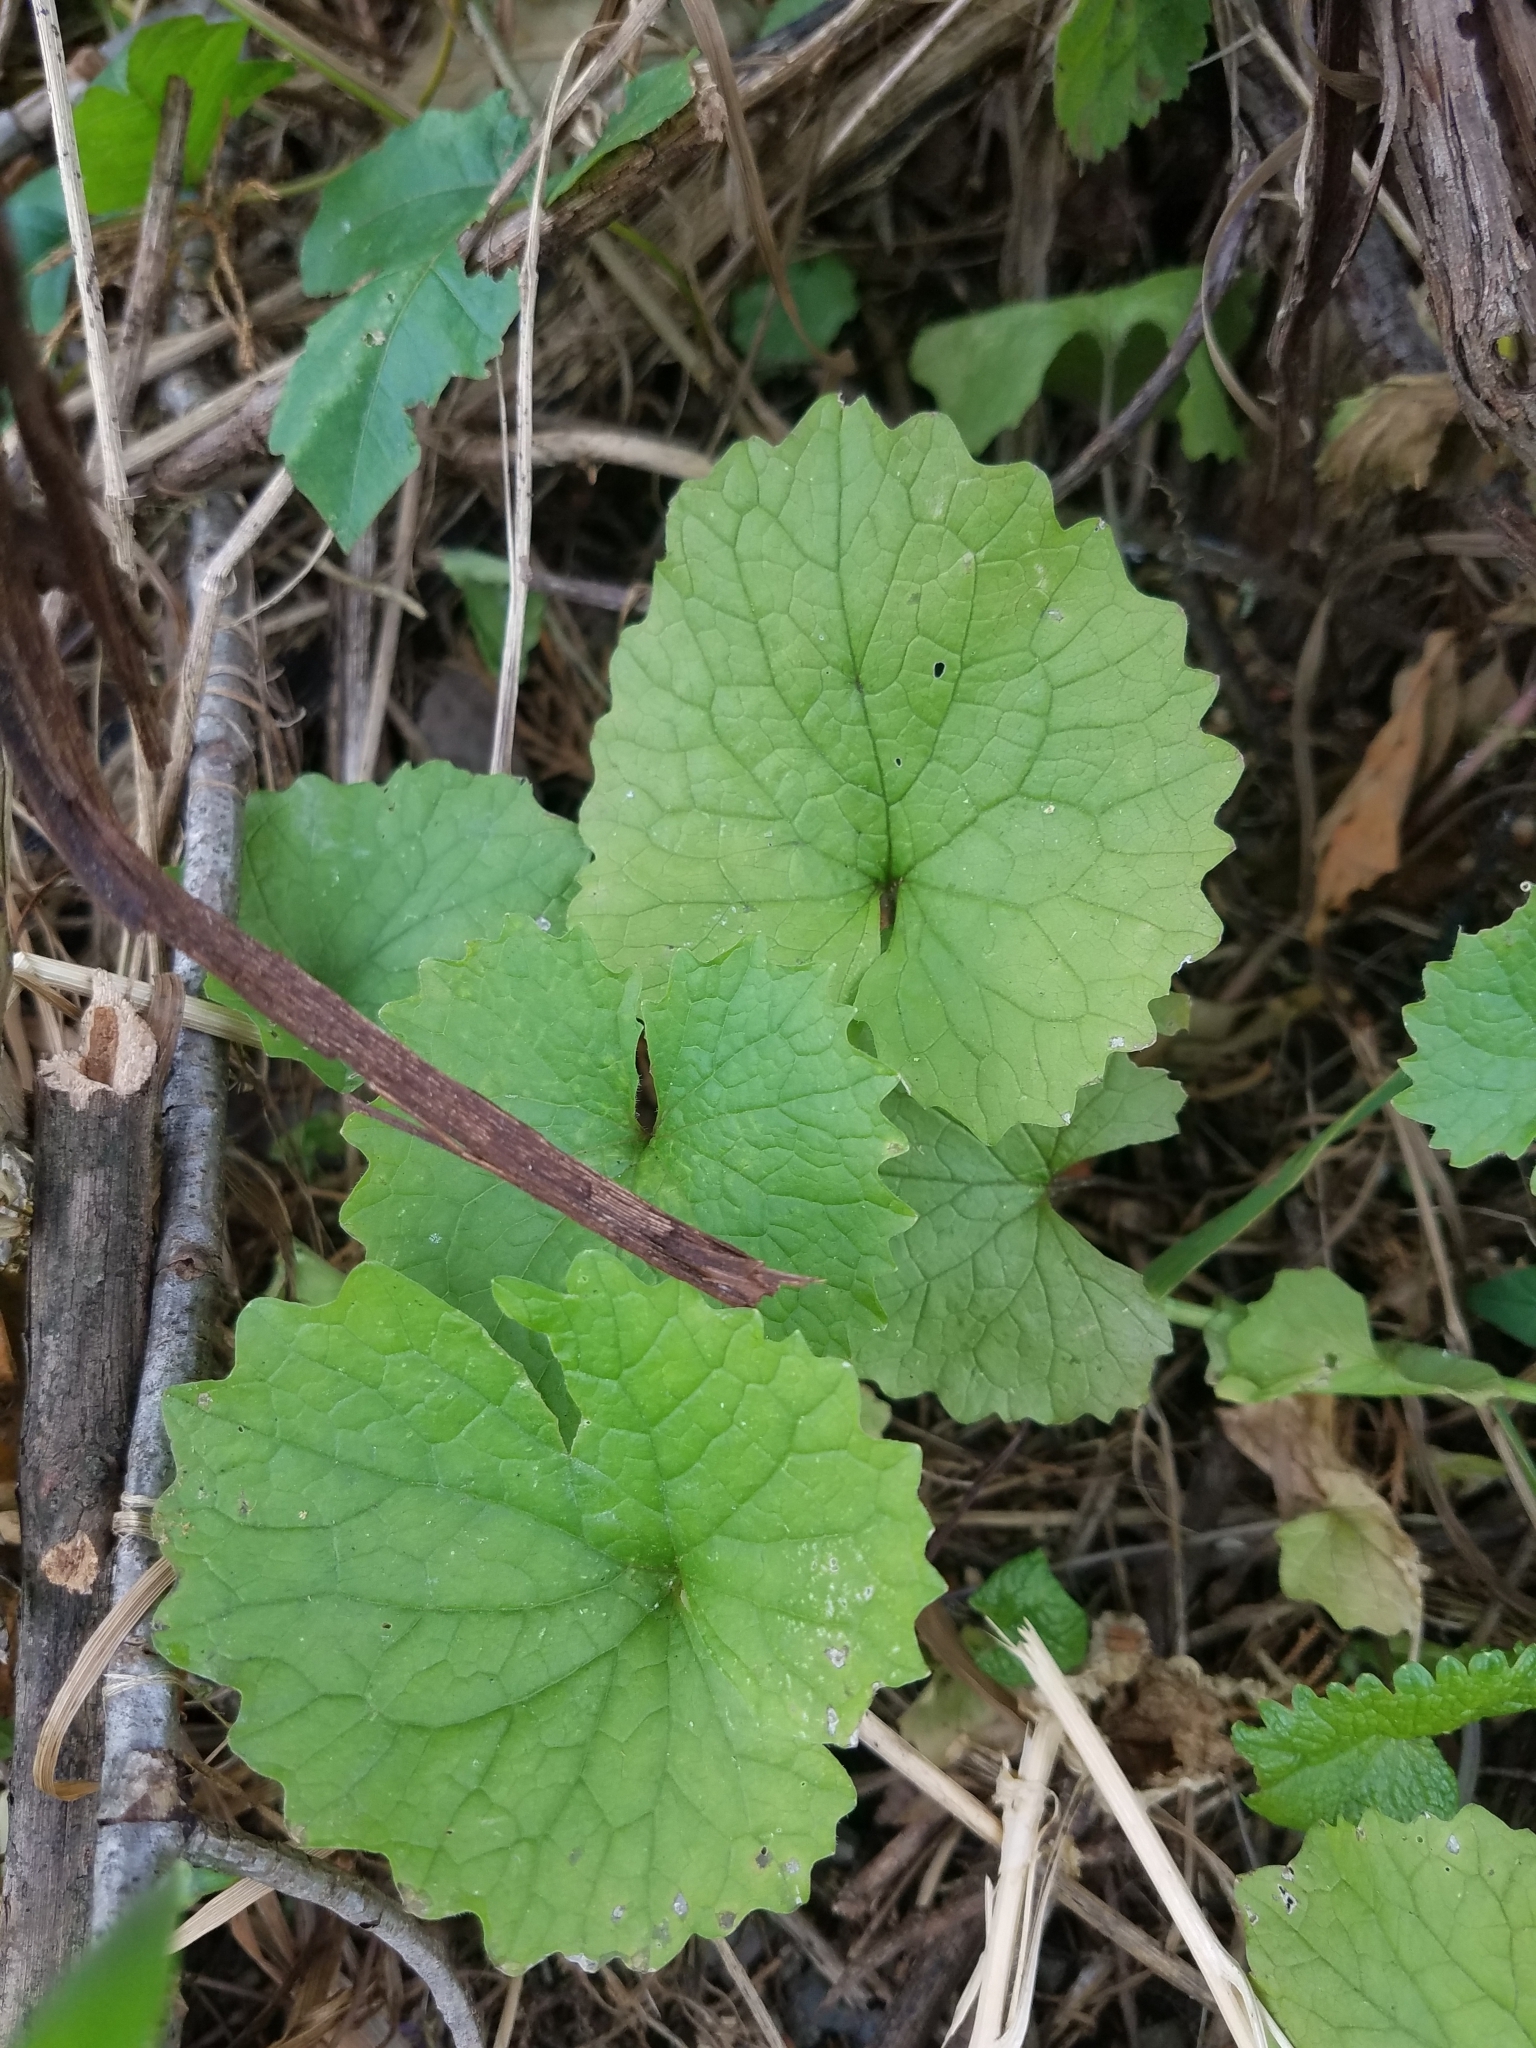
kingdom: Plantae
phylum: Tracheophyta
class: Magnoliopsida
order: Brassicales
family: Brassicaceae
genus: Alliaria
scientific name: Alliaria petiolata
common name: Garlic mustard
